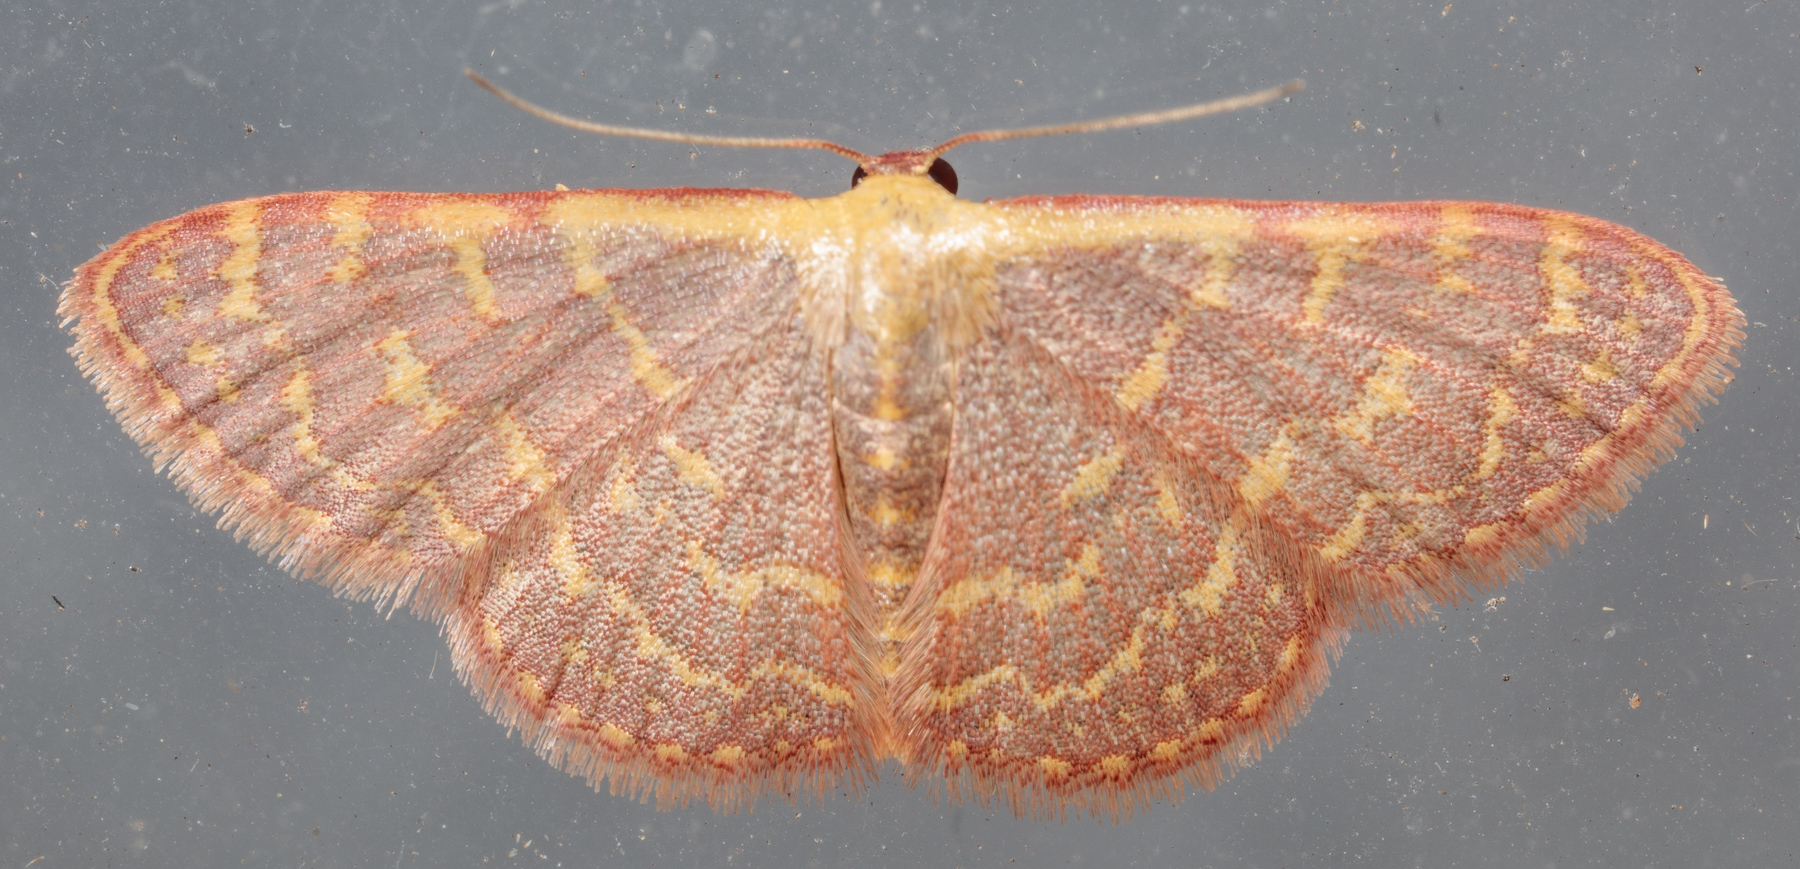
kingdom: Animalia
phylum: Arthropoda
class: Insecta
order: Lepidoptera
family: Geometridae
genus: Leptostales
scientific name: Leptostales pannaria
